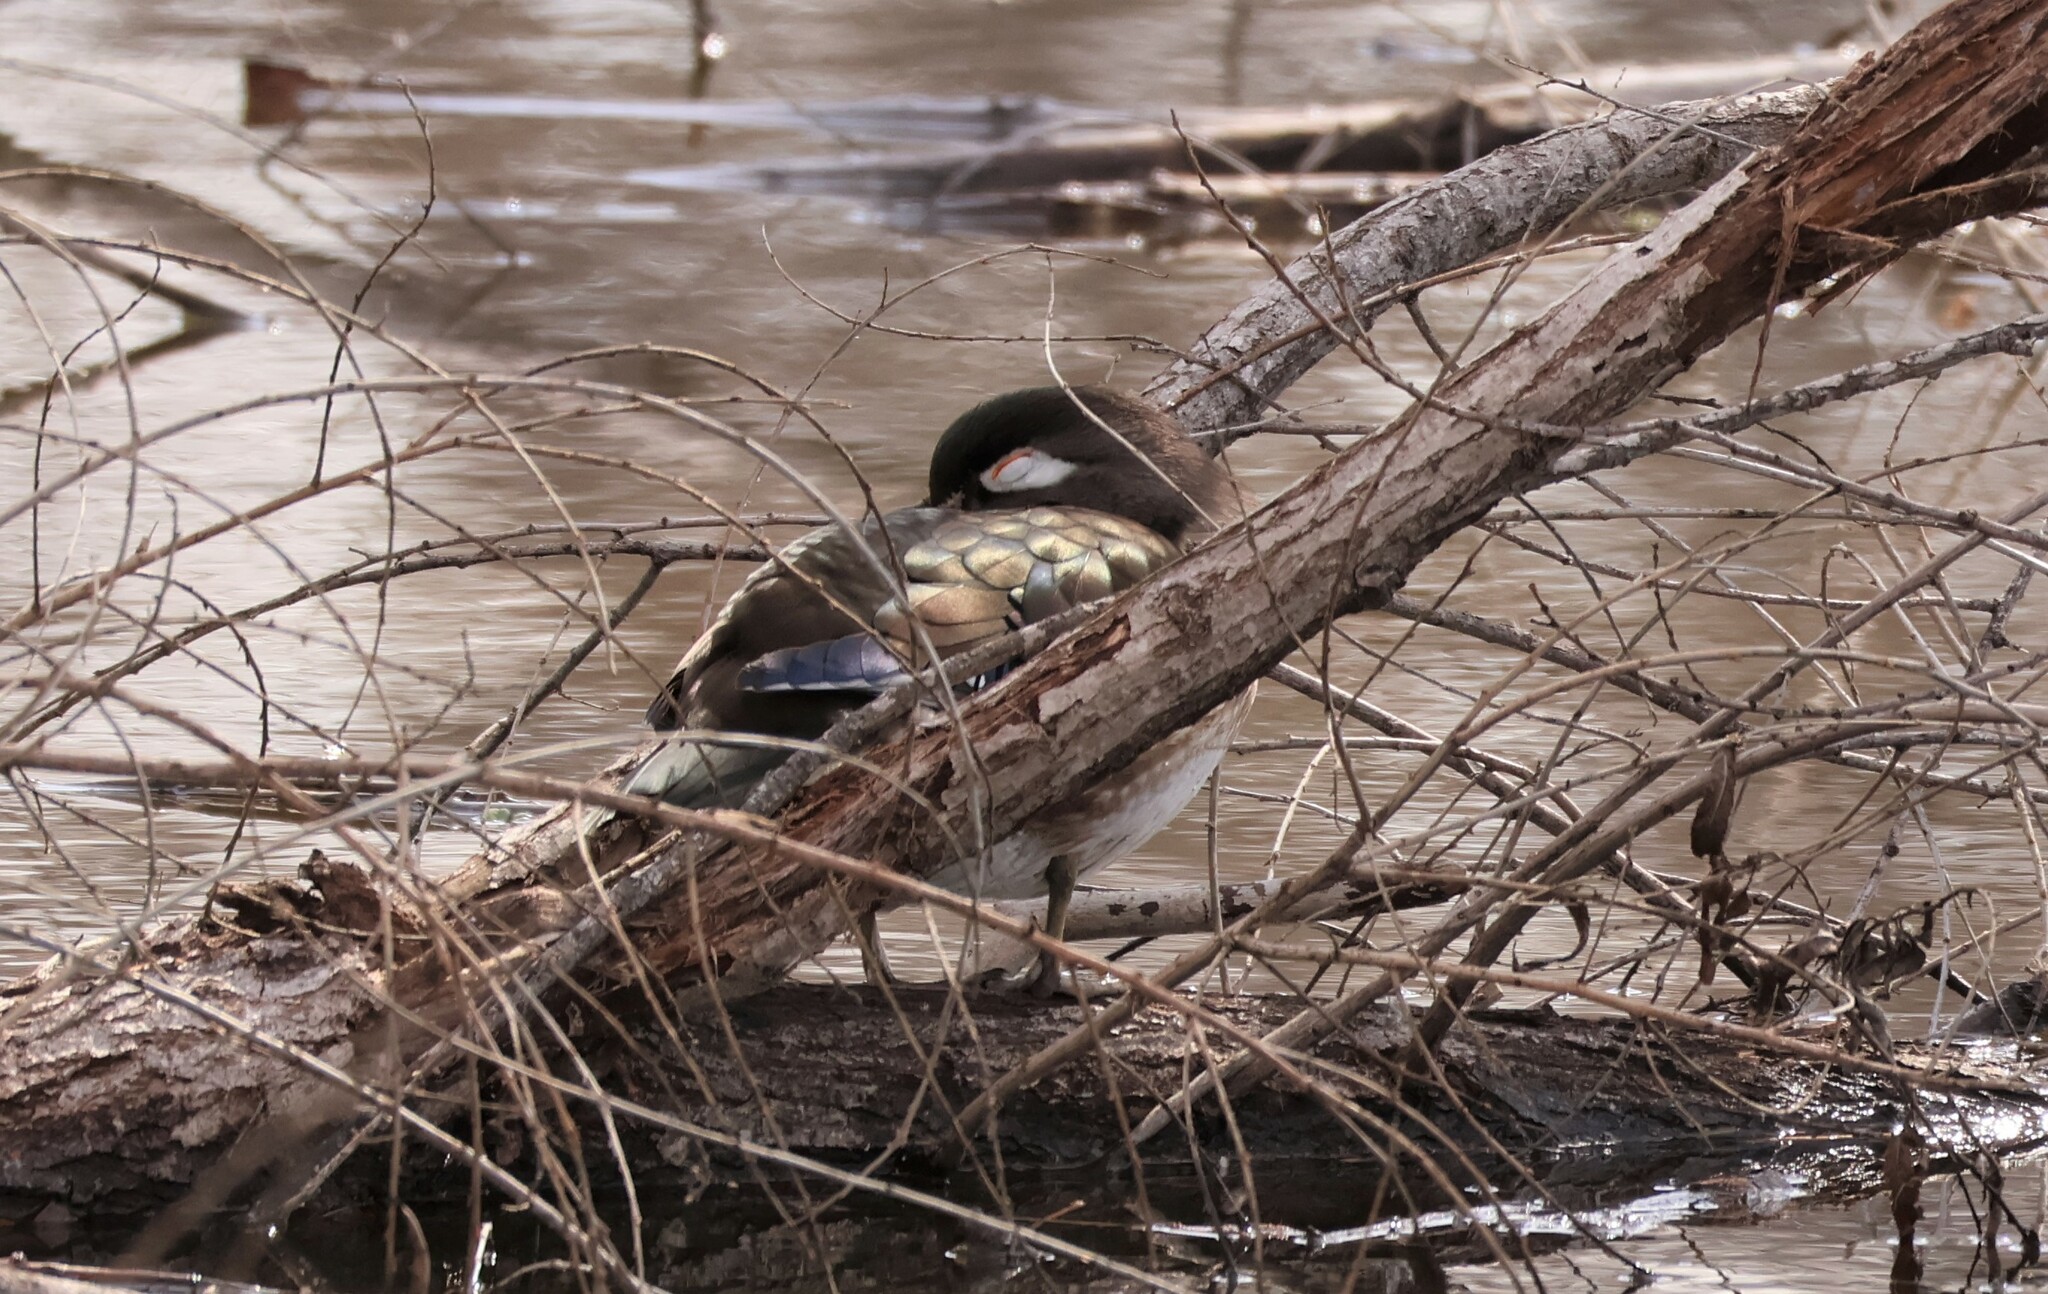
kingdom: Animalia
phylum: Chordata
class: Aves
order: Anseriformes
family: Anatidae
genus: Aix
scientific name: Aix sponsa
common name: Wood duck
